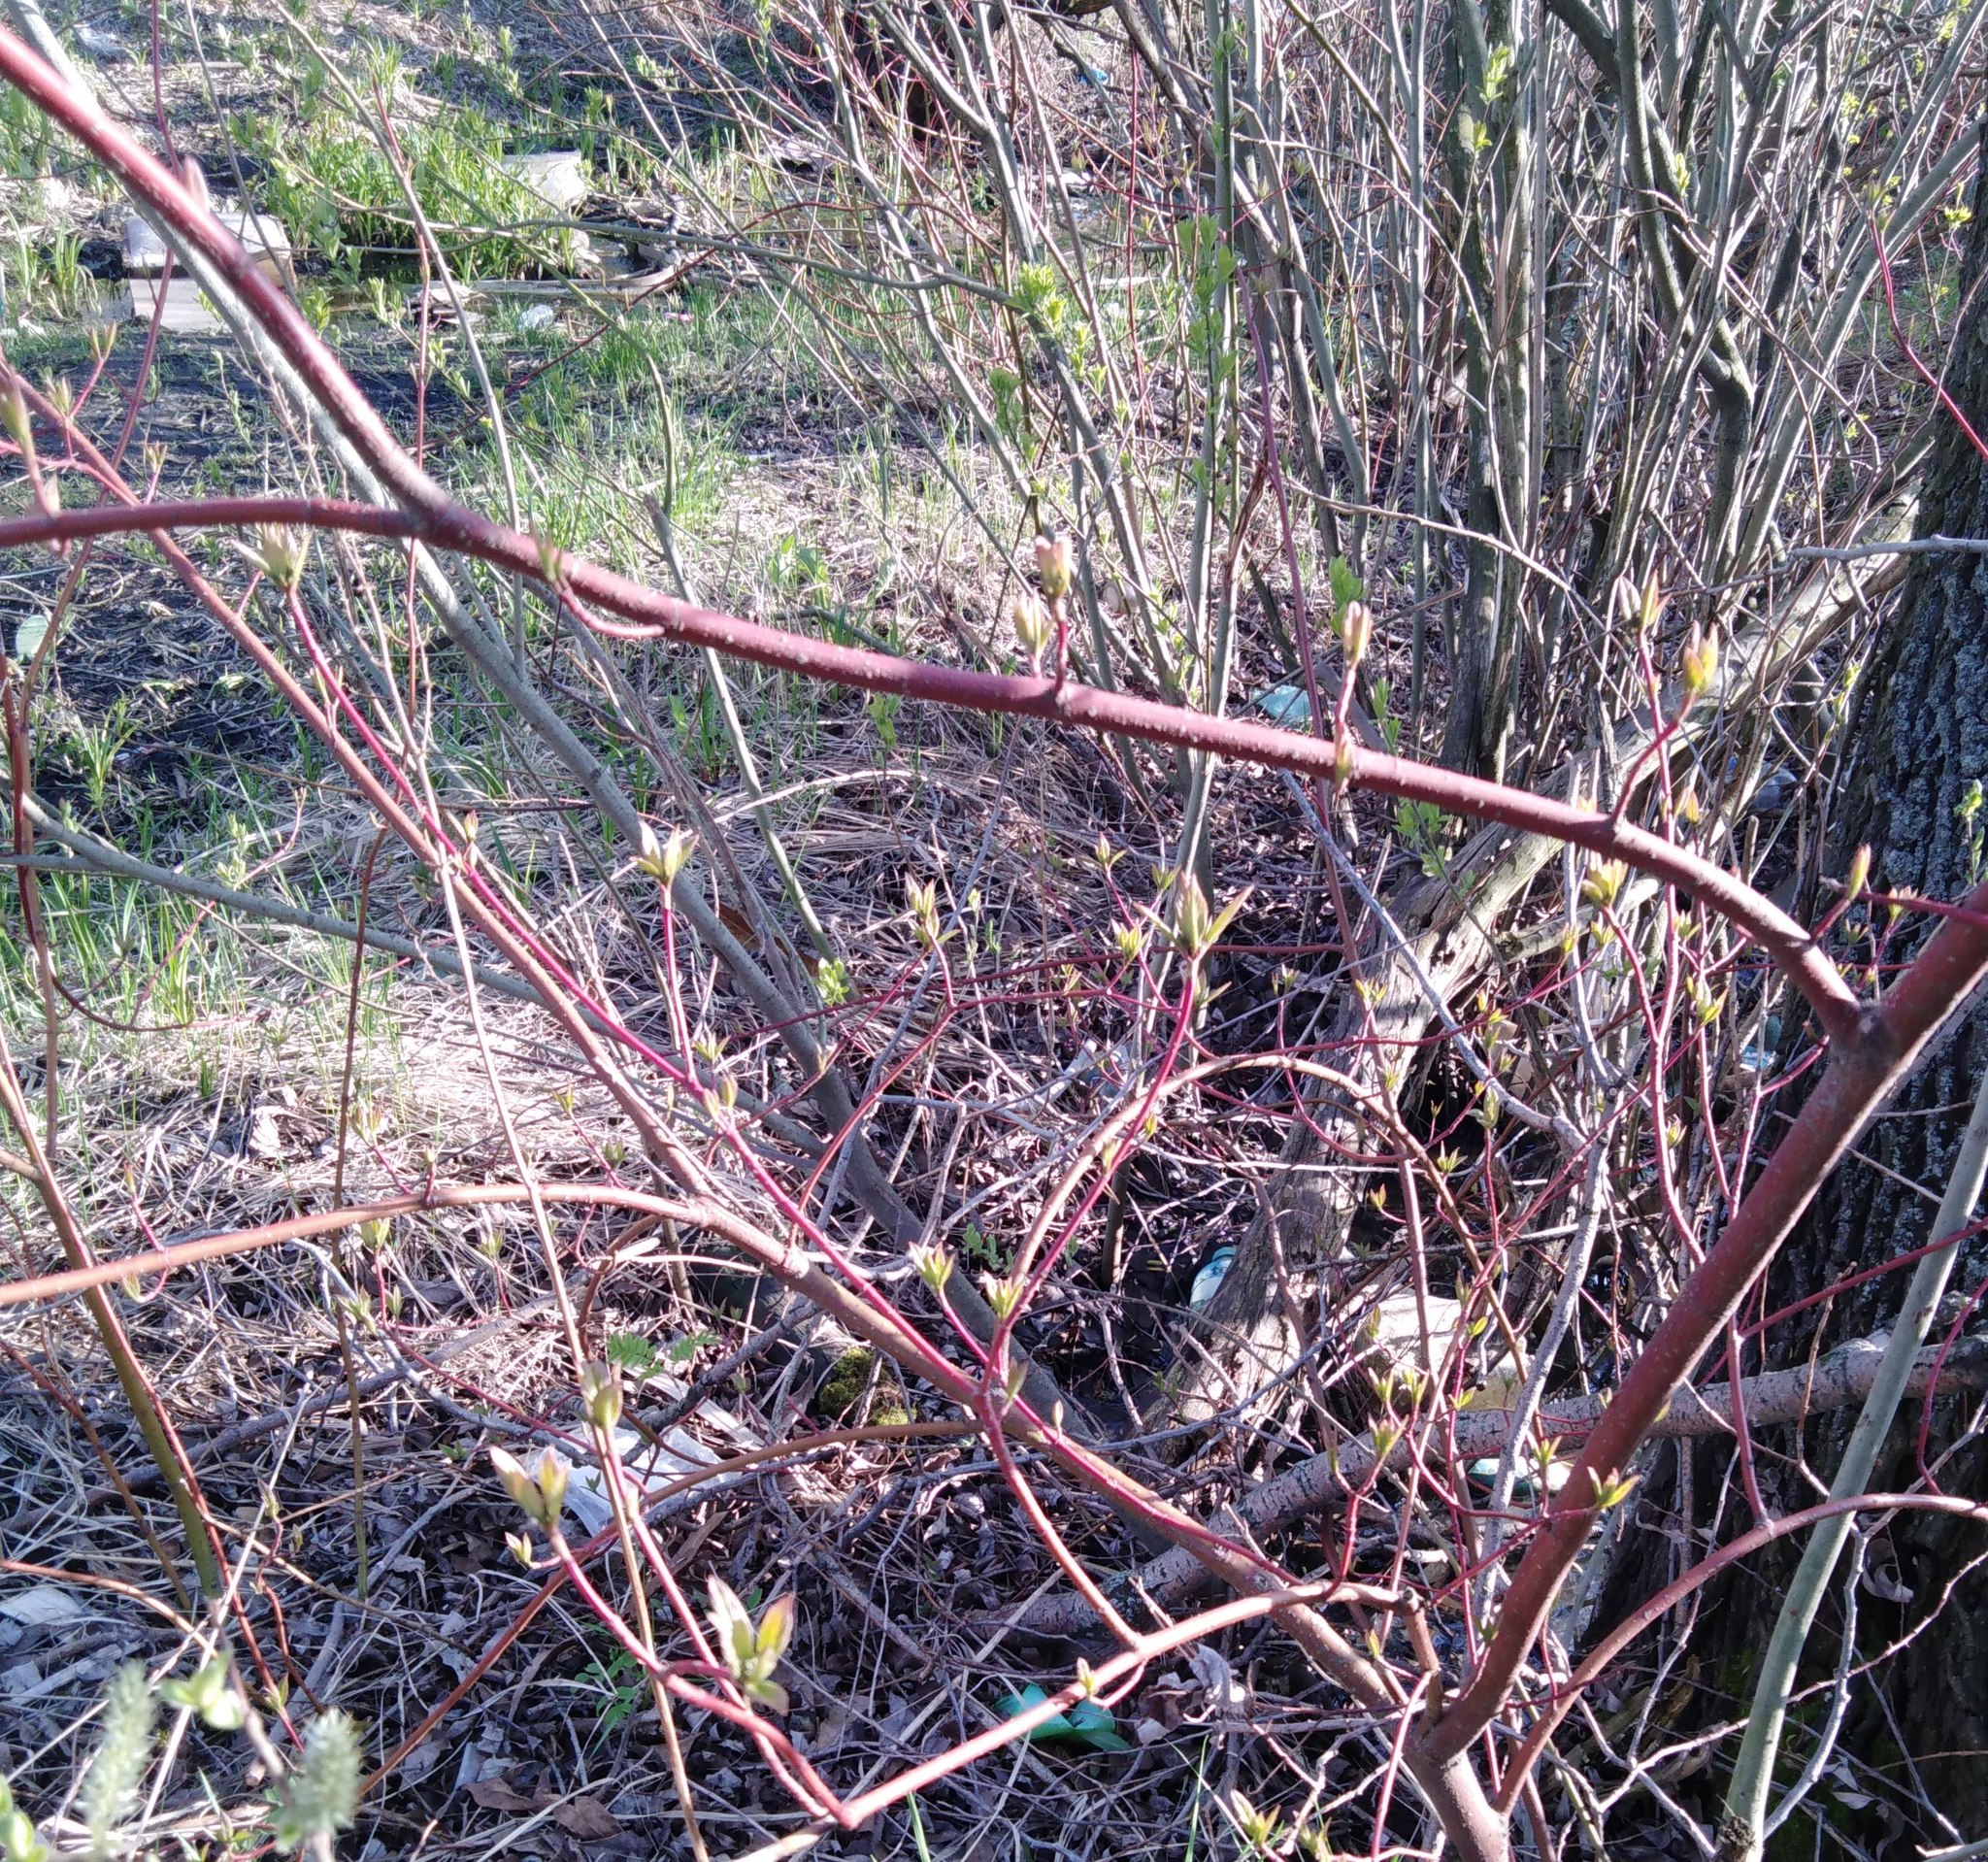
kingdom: Plantae
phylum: Tracheophyta
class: Magnoliopsida
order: Cornales
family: Cornaceae
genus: Cornus
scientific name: Cornus sericea
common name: Red-osier dogwood
